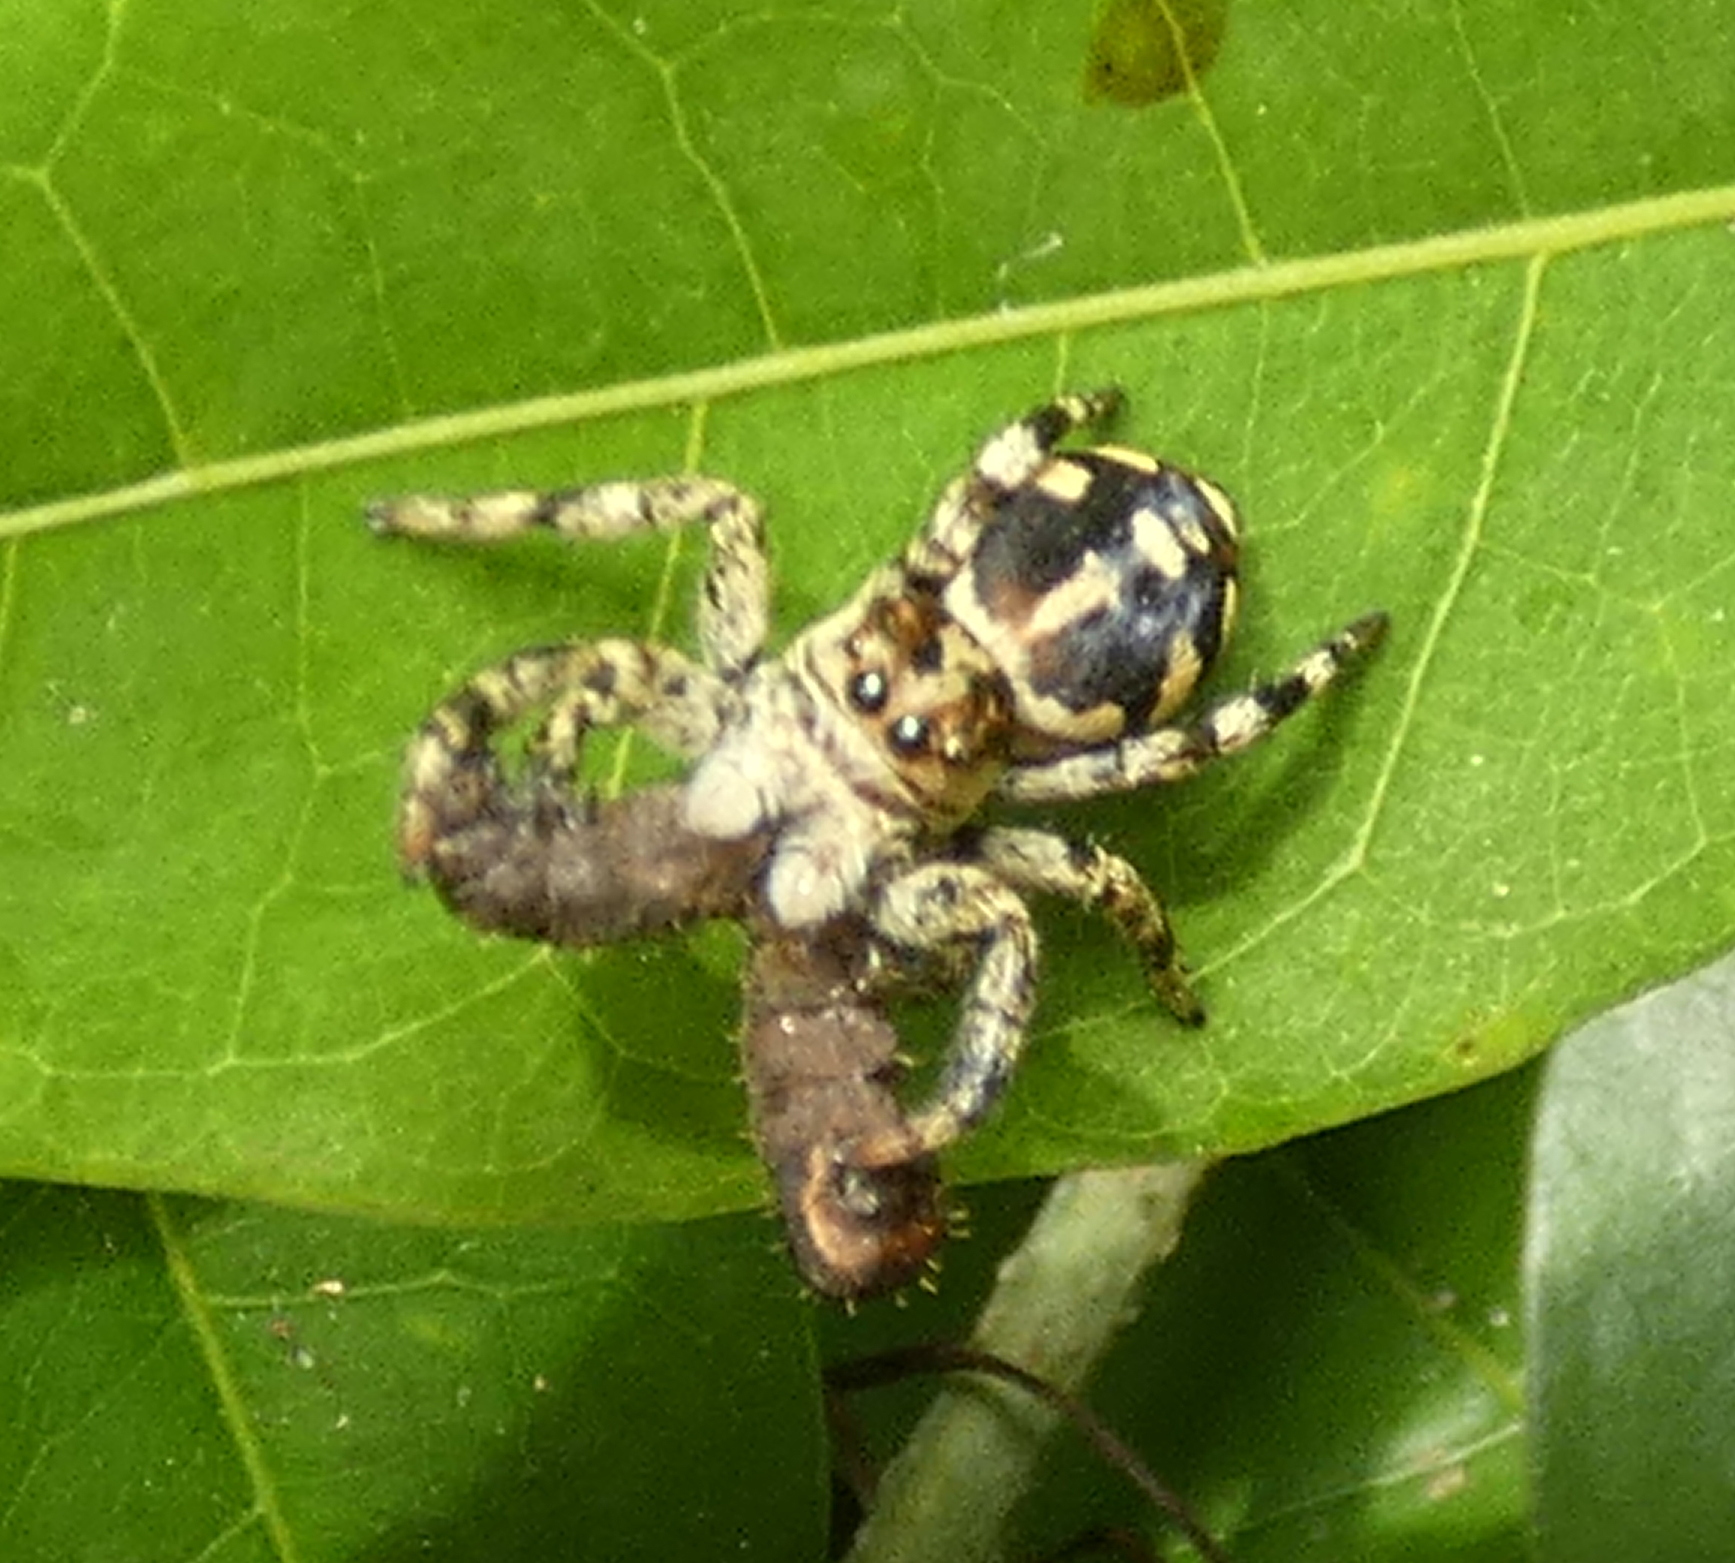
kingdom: Animalia
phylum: Arthropoda
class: Arachnida
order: Araneae
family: Salticidae
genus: Phiale
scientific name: Phiale guttata
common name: Jumping spiders
